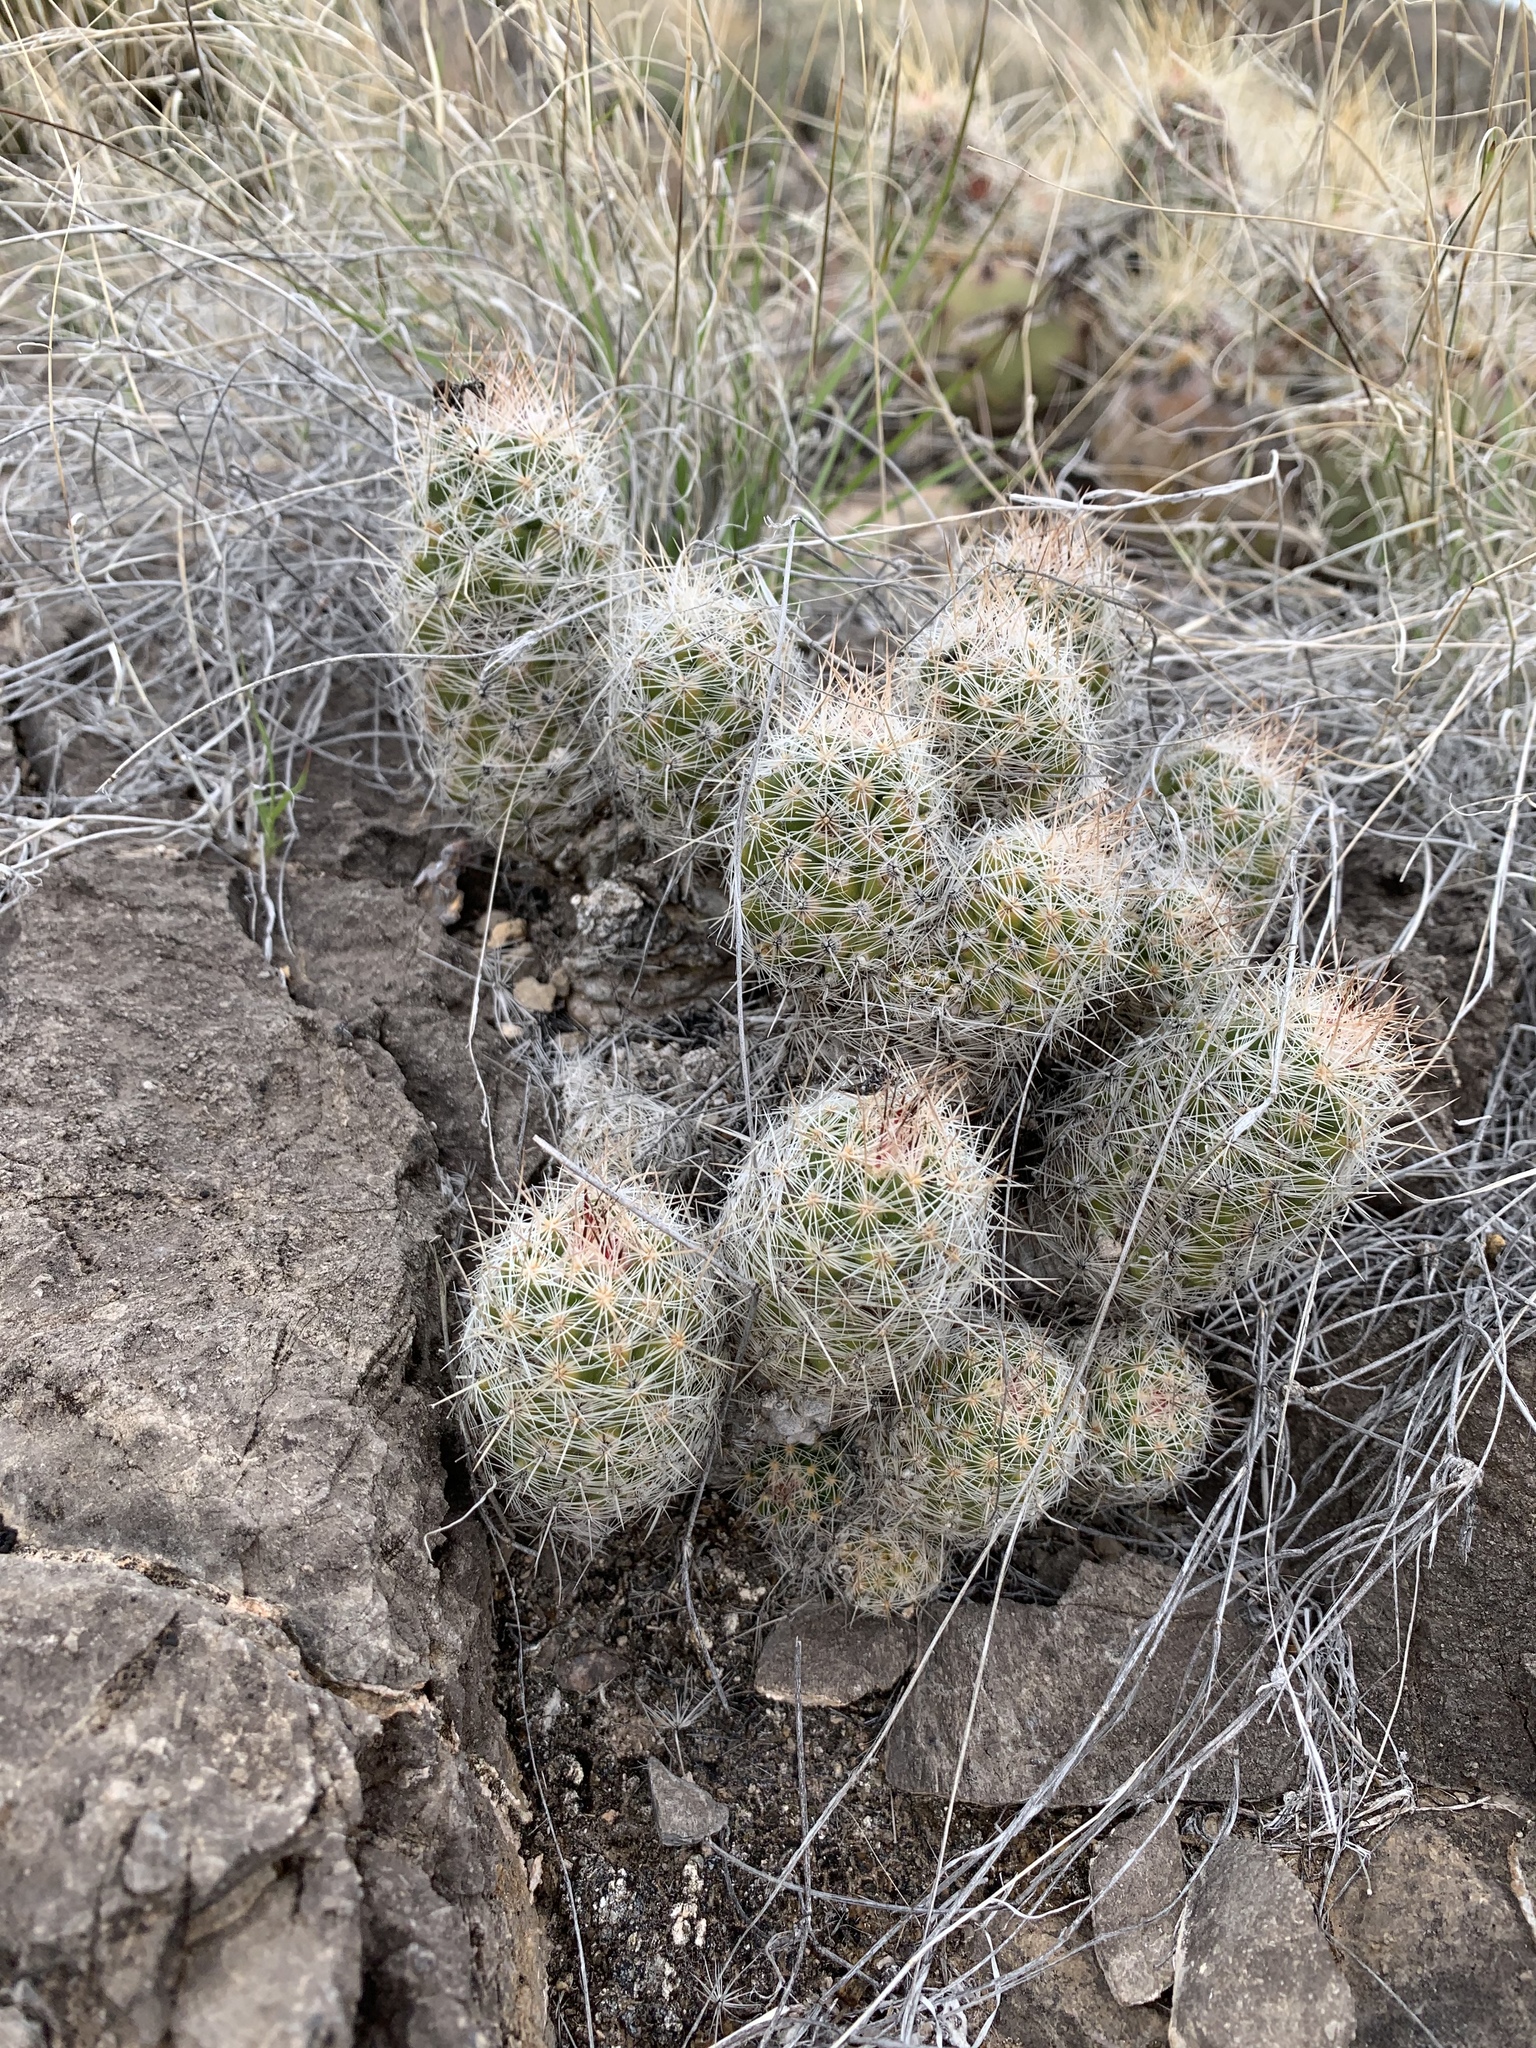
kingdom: Plantae
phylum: Tracheophyta
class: Magnoliopsida
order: Caryophyllales
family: Cactaceae
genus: Pelecyphora
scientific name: Pelecyphora tuberculosa
